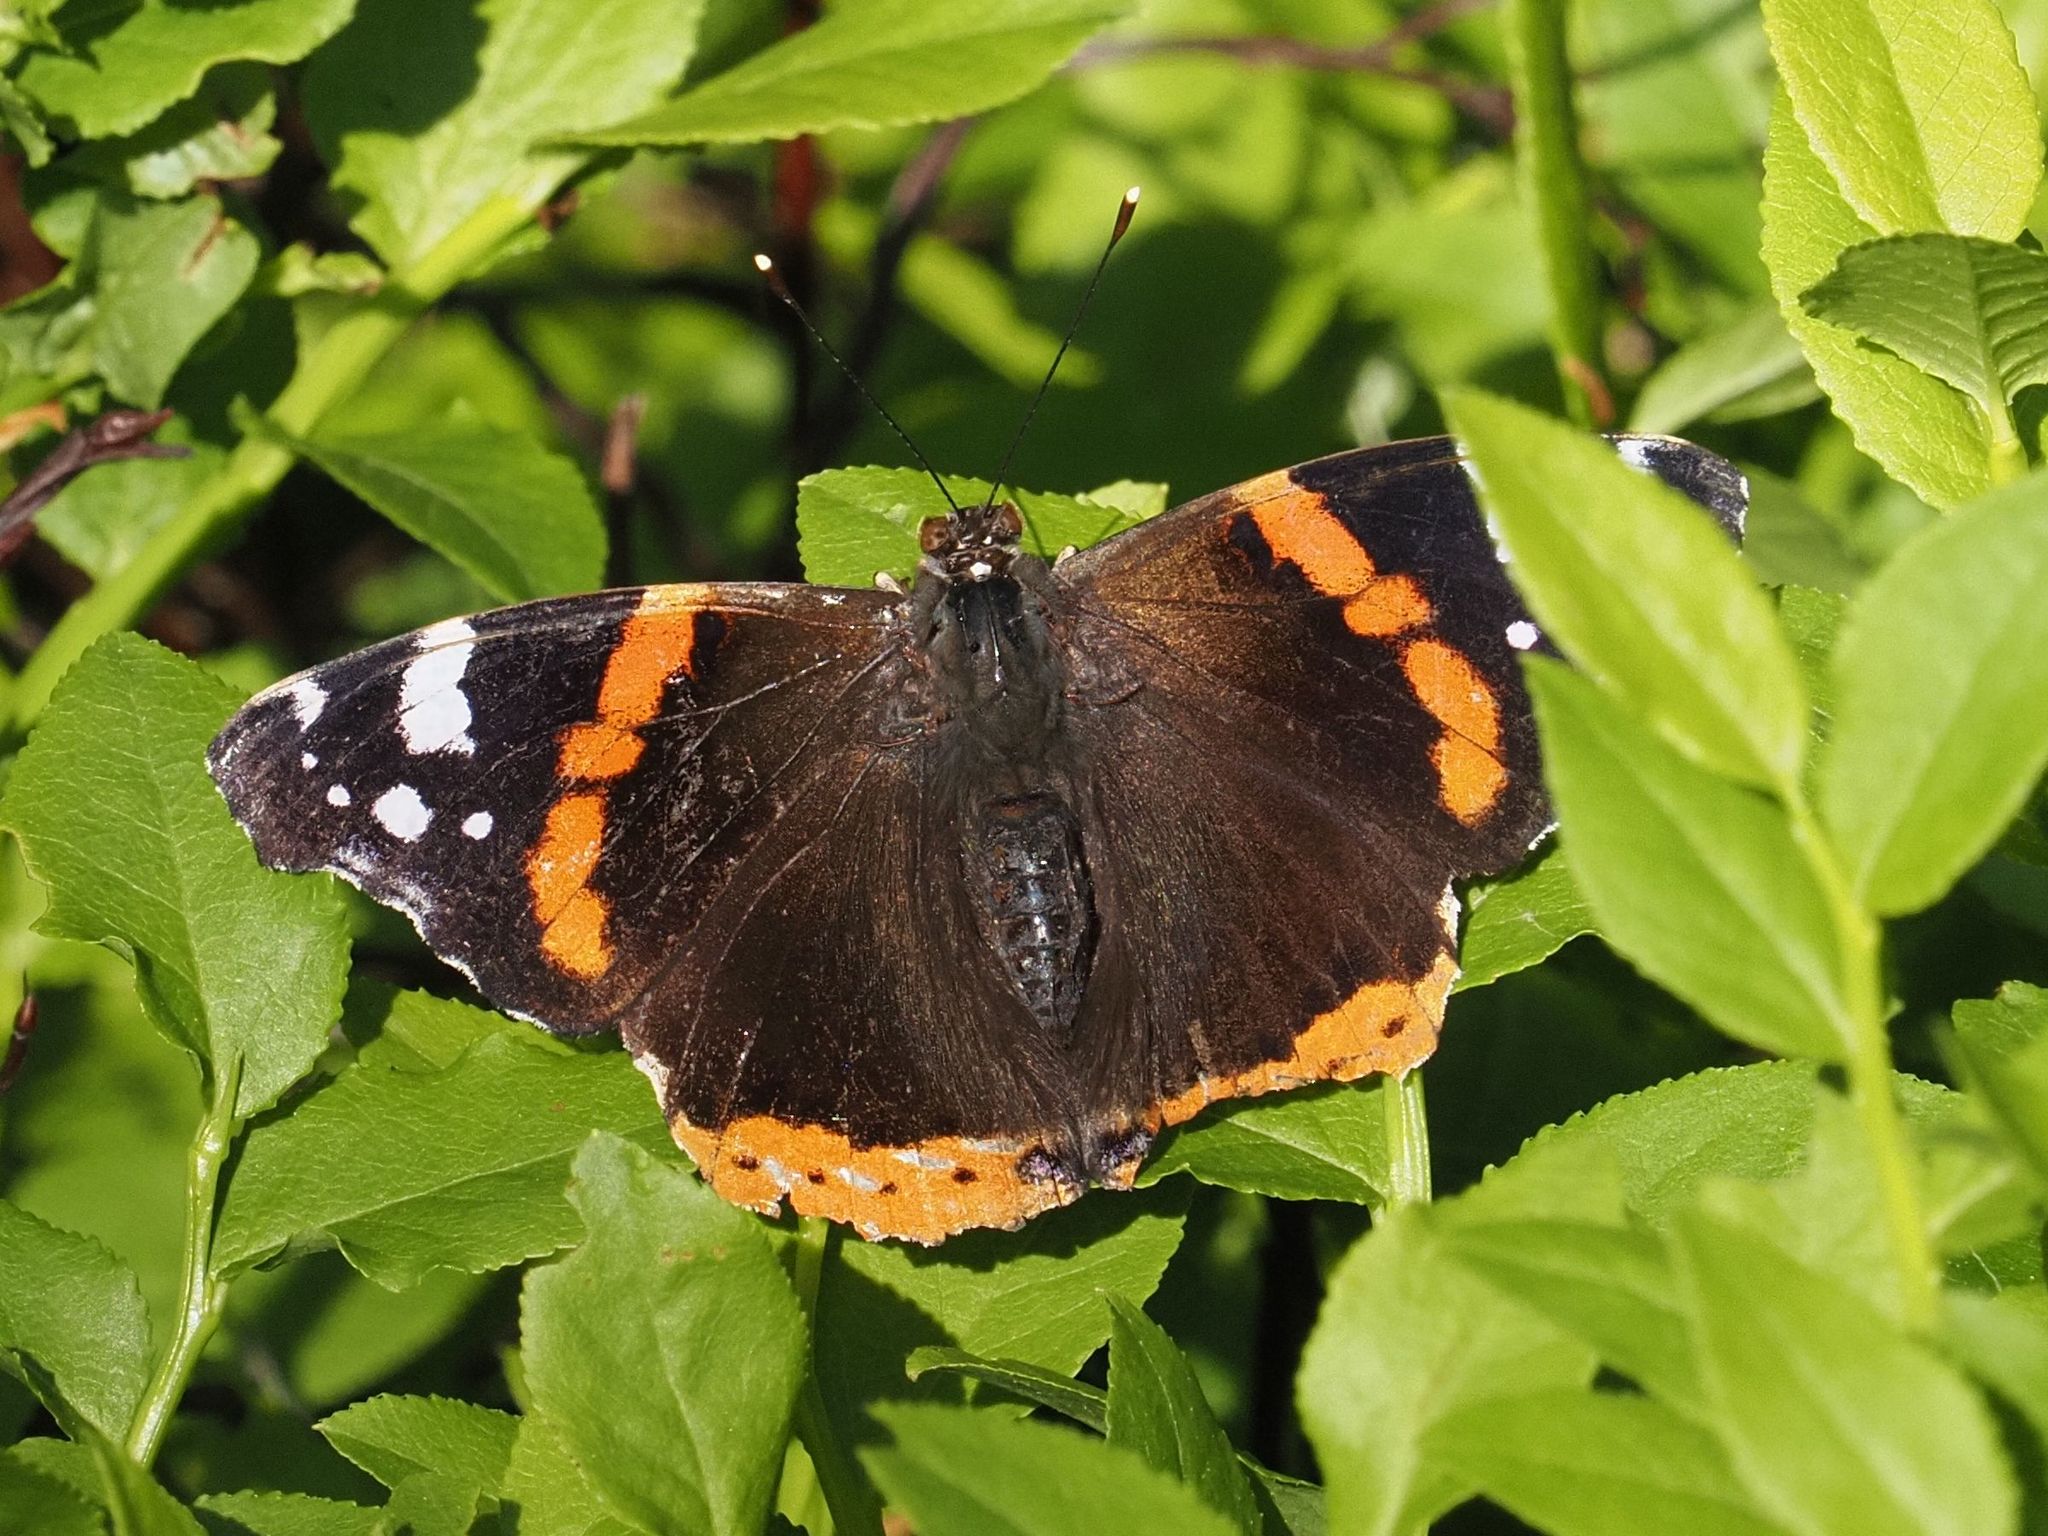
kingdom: Animalia
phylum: Arthropoda
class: Insecta
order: Lepidoptera
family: Nymphalidae
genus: Vanessa
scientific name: Vanessa atalanta
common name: Red admiral
